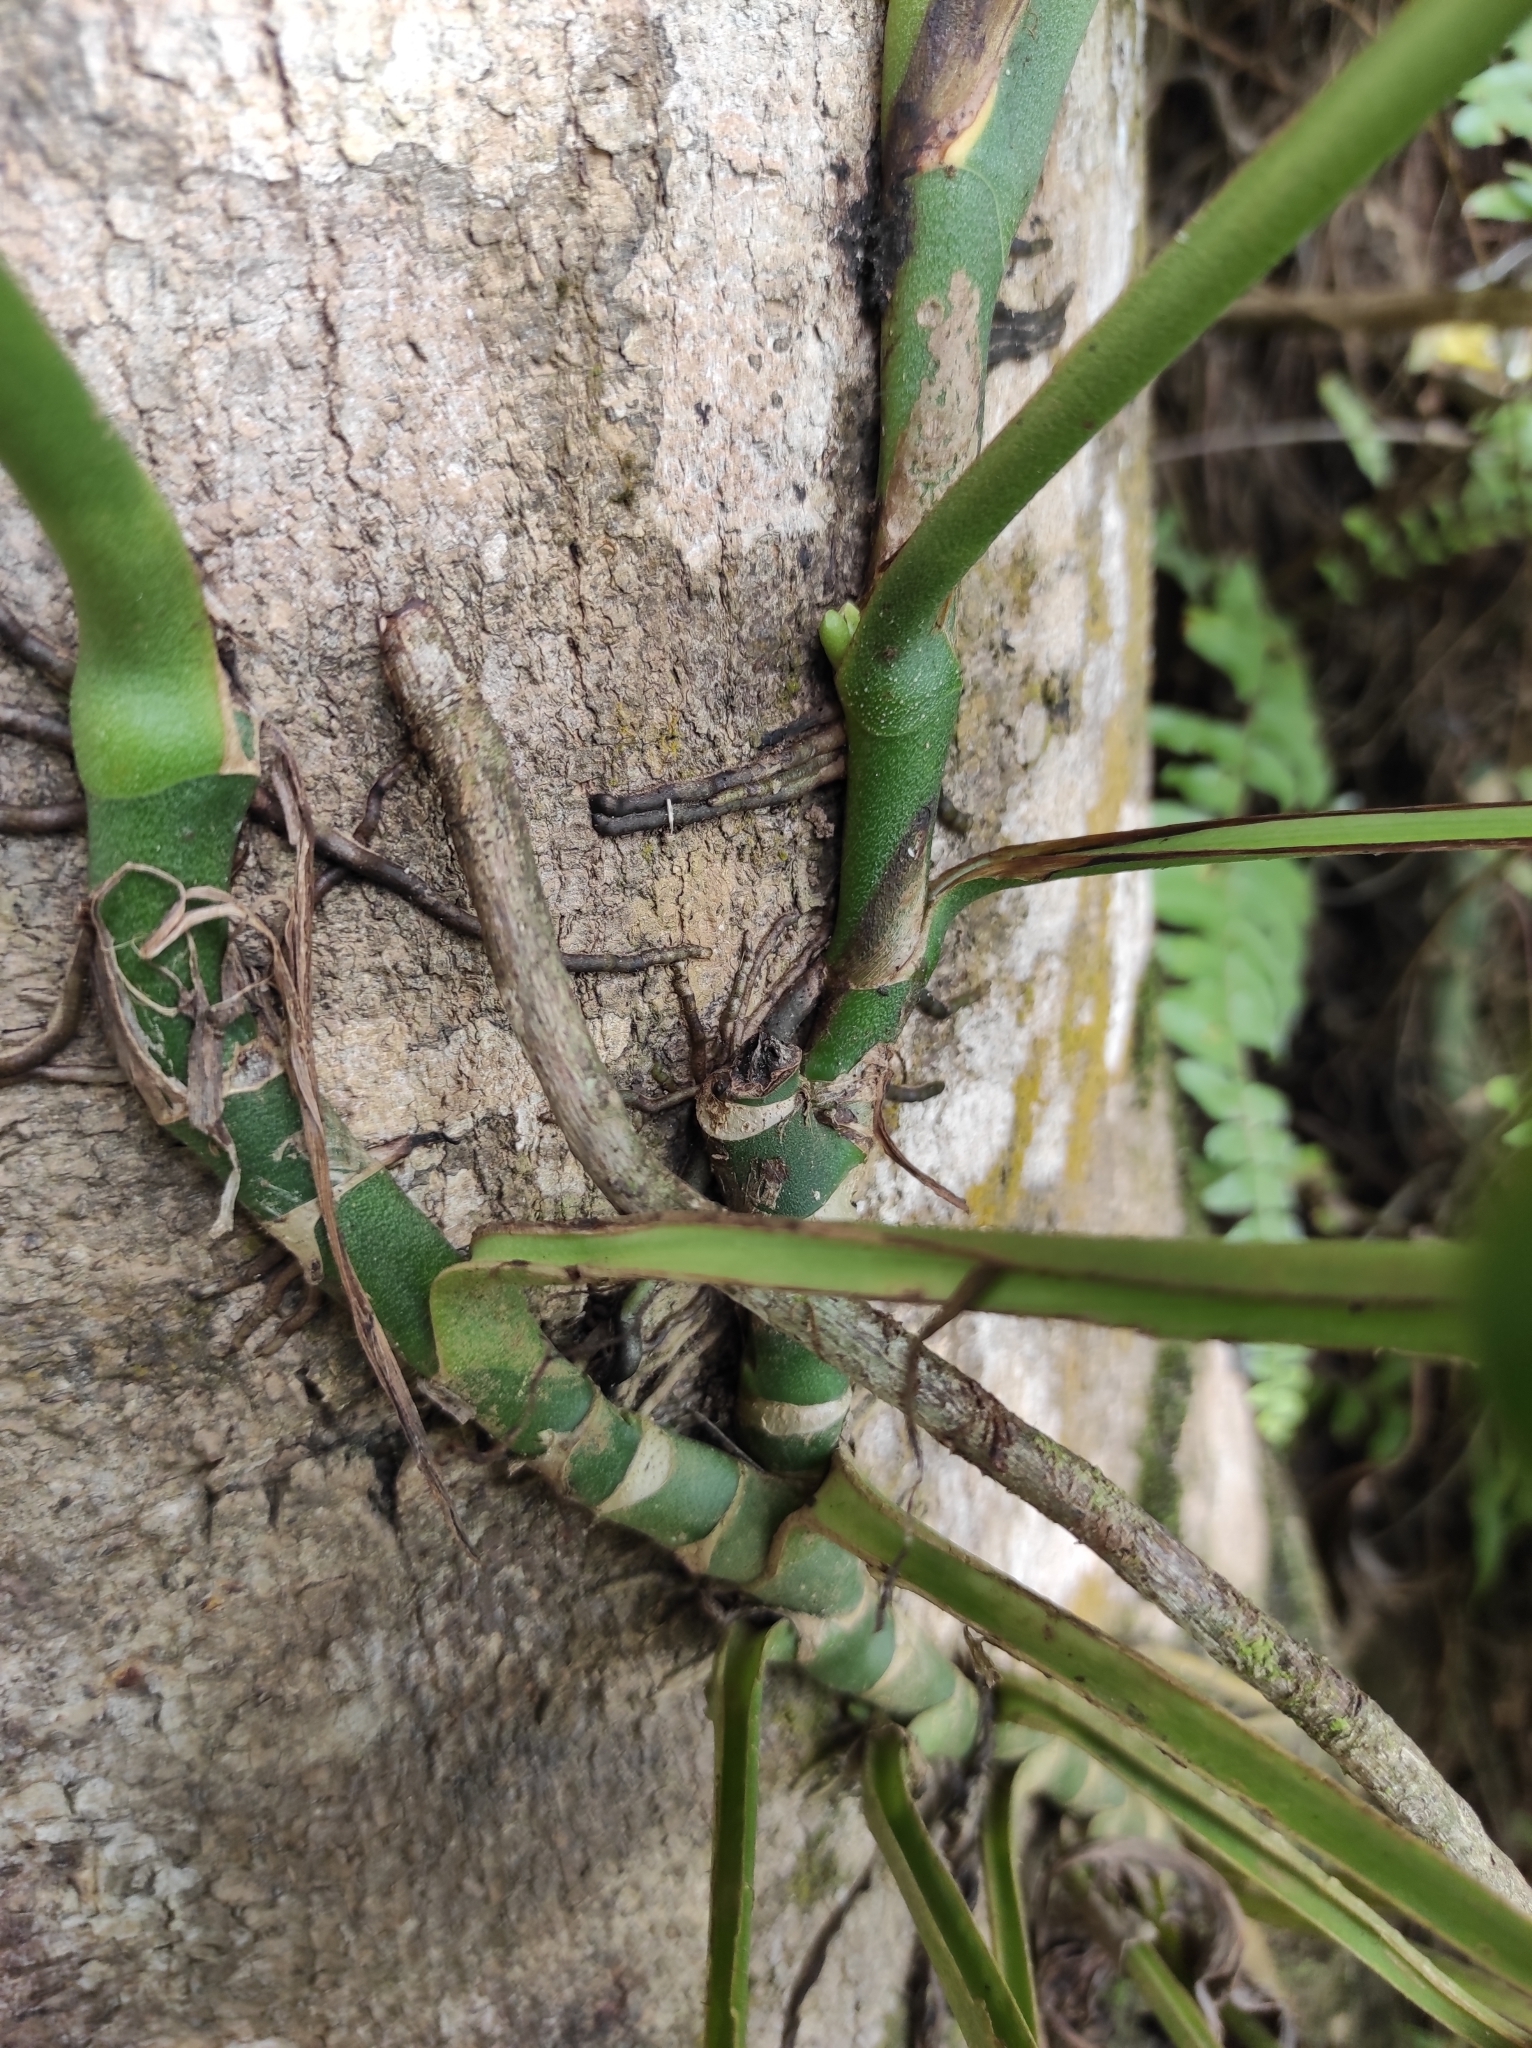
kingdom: Plantae
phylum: Tracheophyta
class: Liliopsida
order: Alismatales
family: Araceae
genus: Monstera
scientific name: Monstera adansonii
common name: Tarovine
